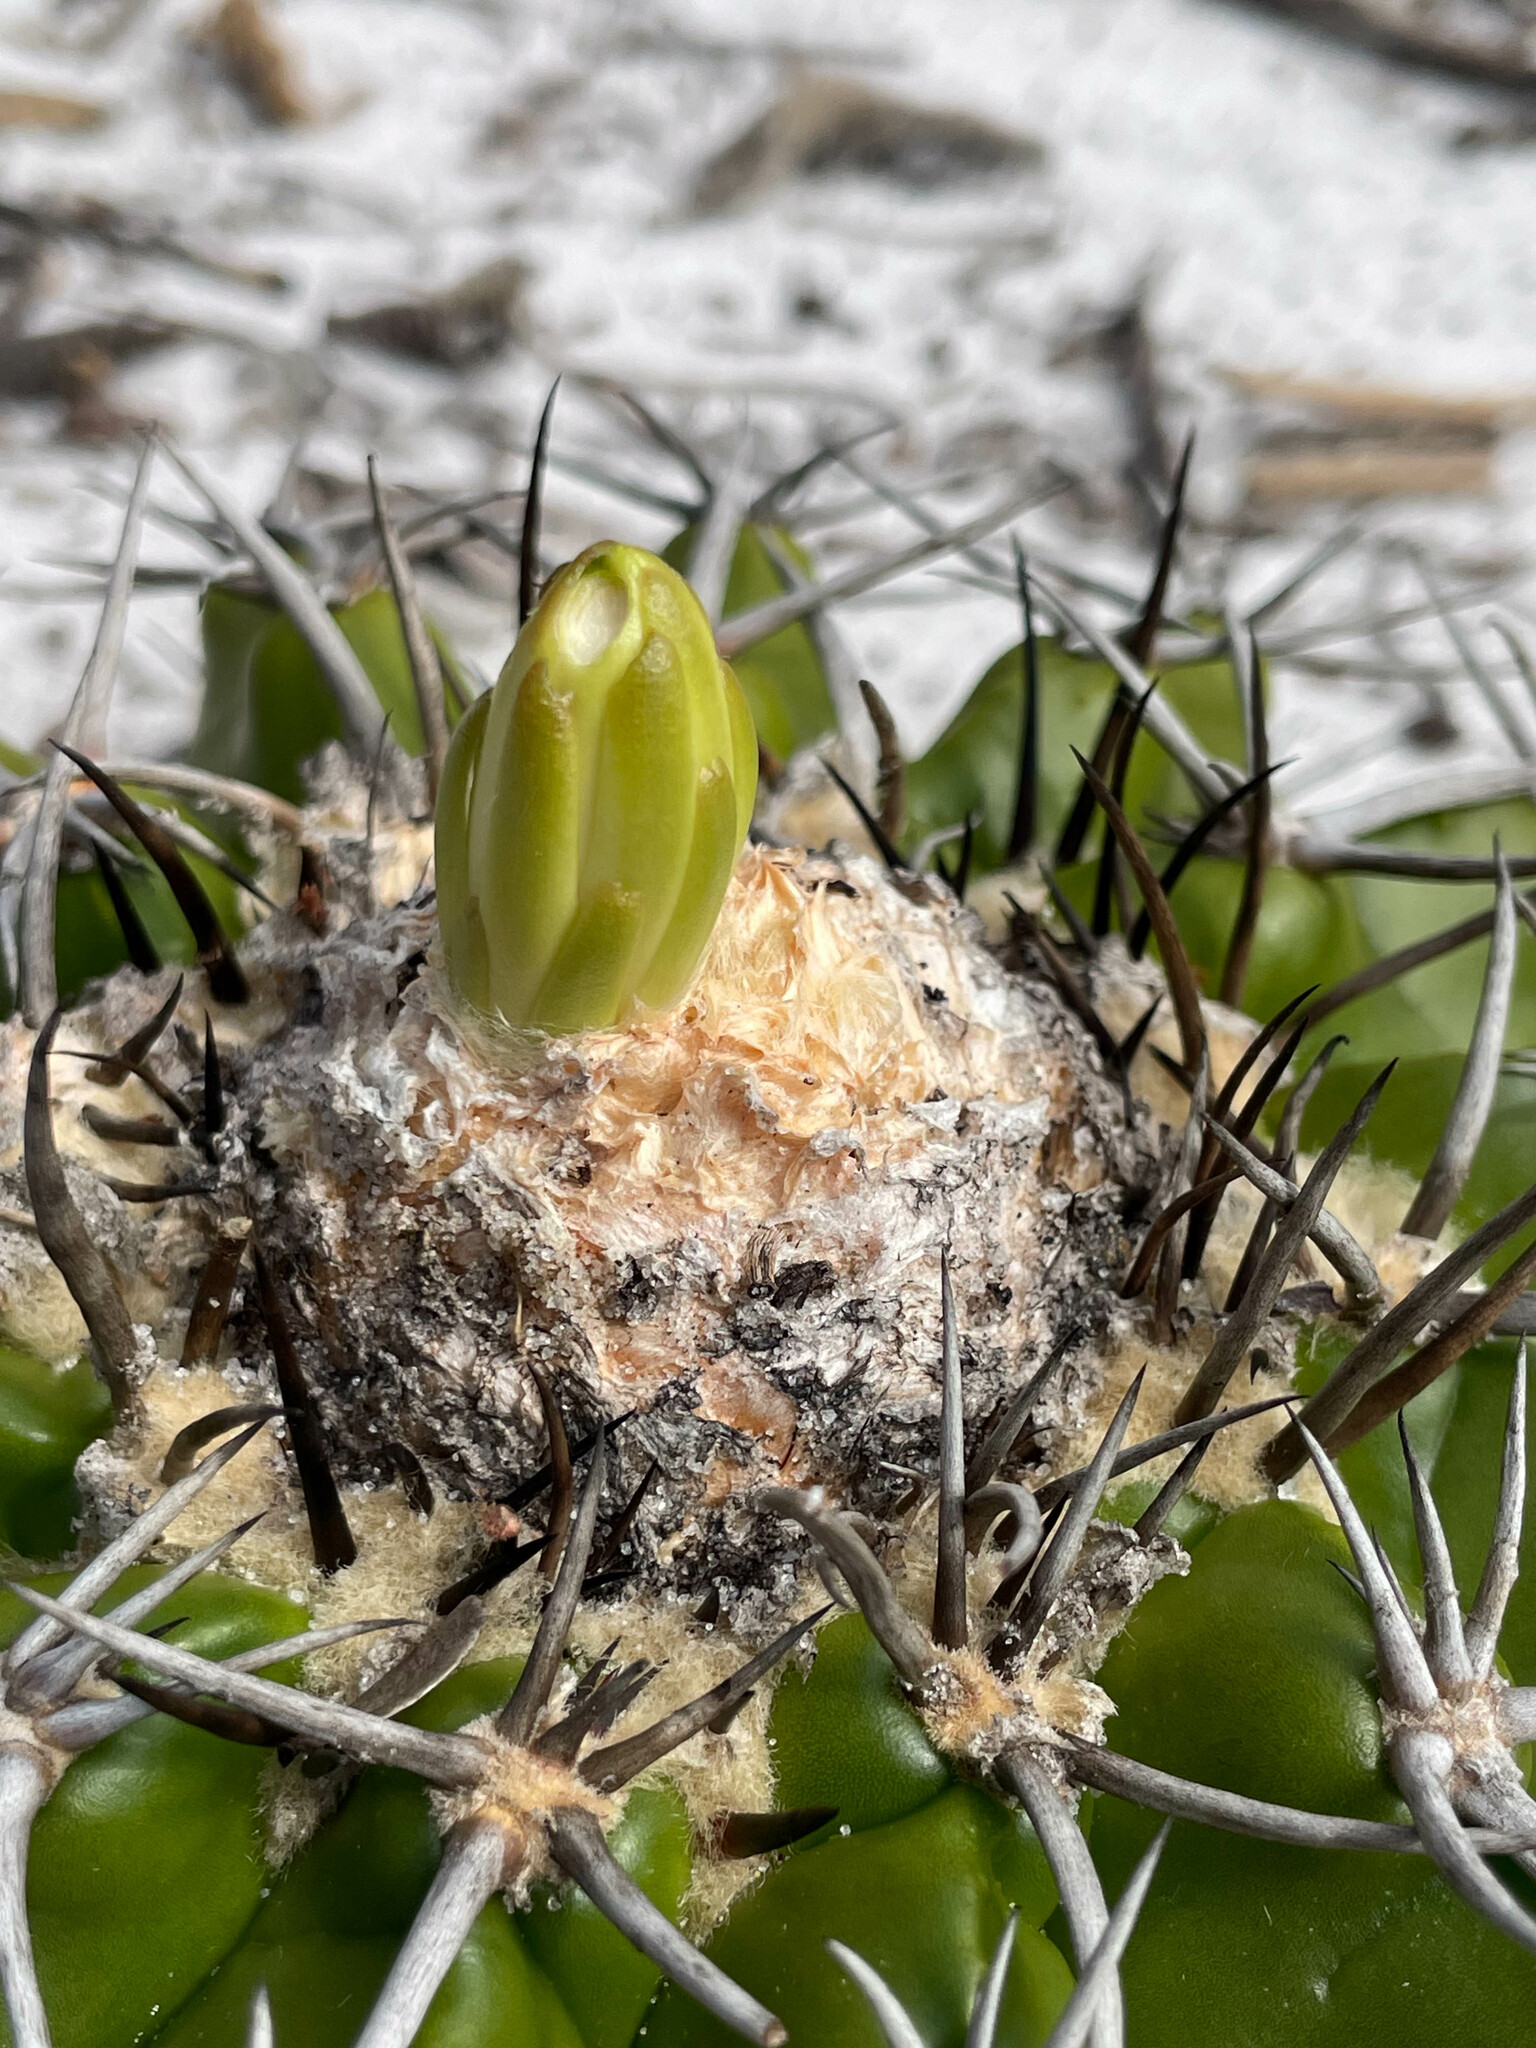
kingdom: Plantae
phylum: Tracheophyta
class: Magnoliopsida
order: Caryophyllales
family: Cactaceae
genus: Discocactus
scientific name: Discocactus pseudoinsignis
